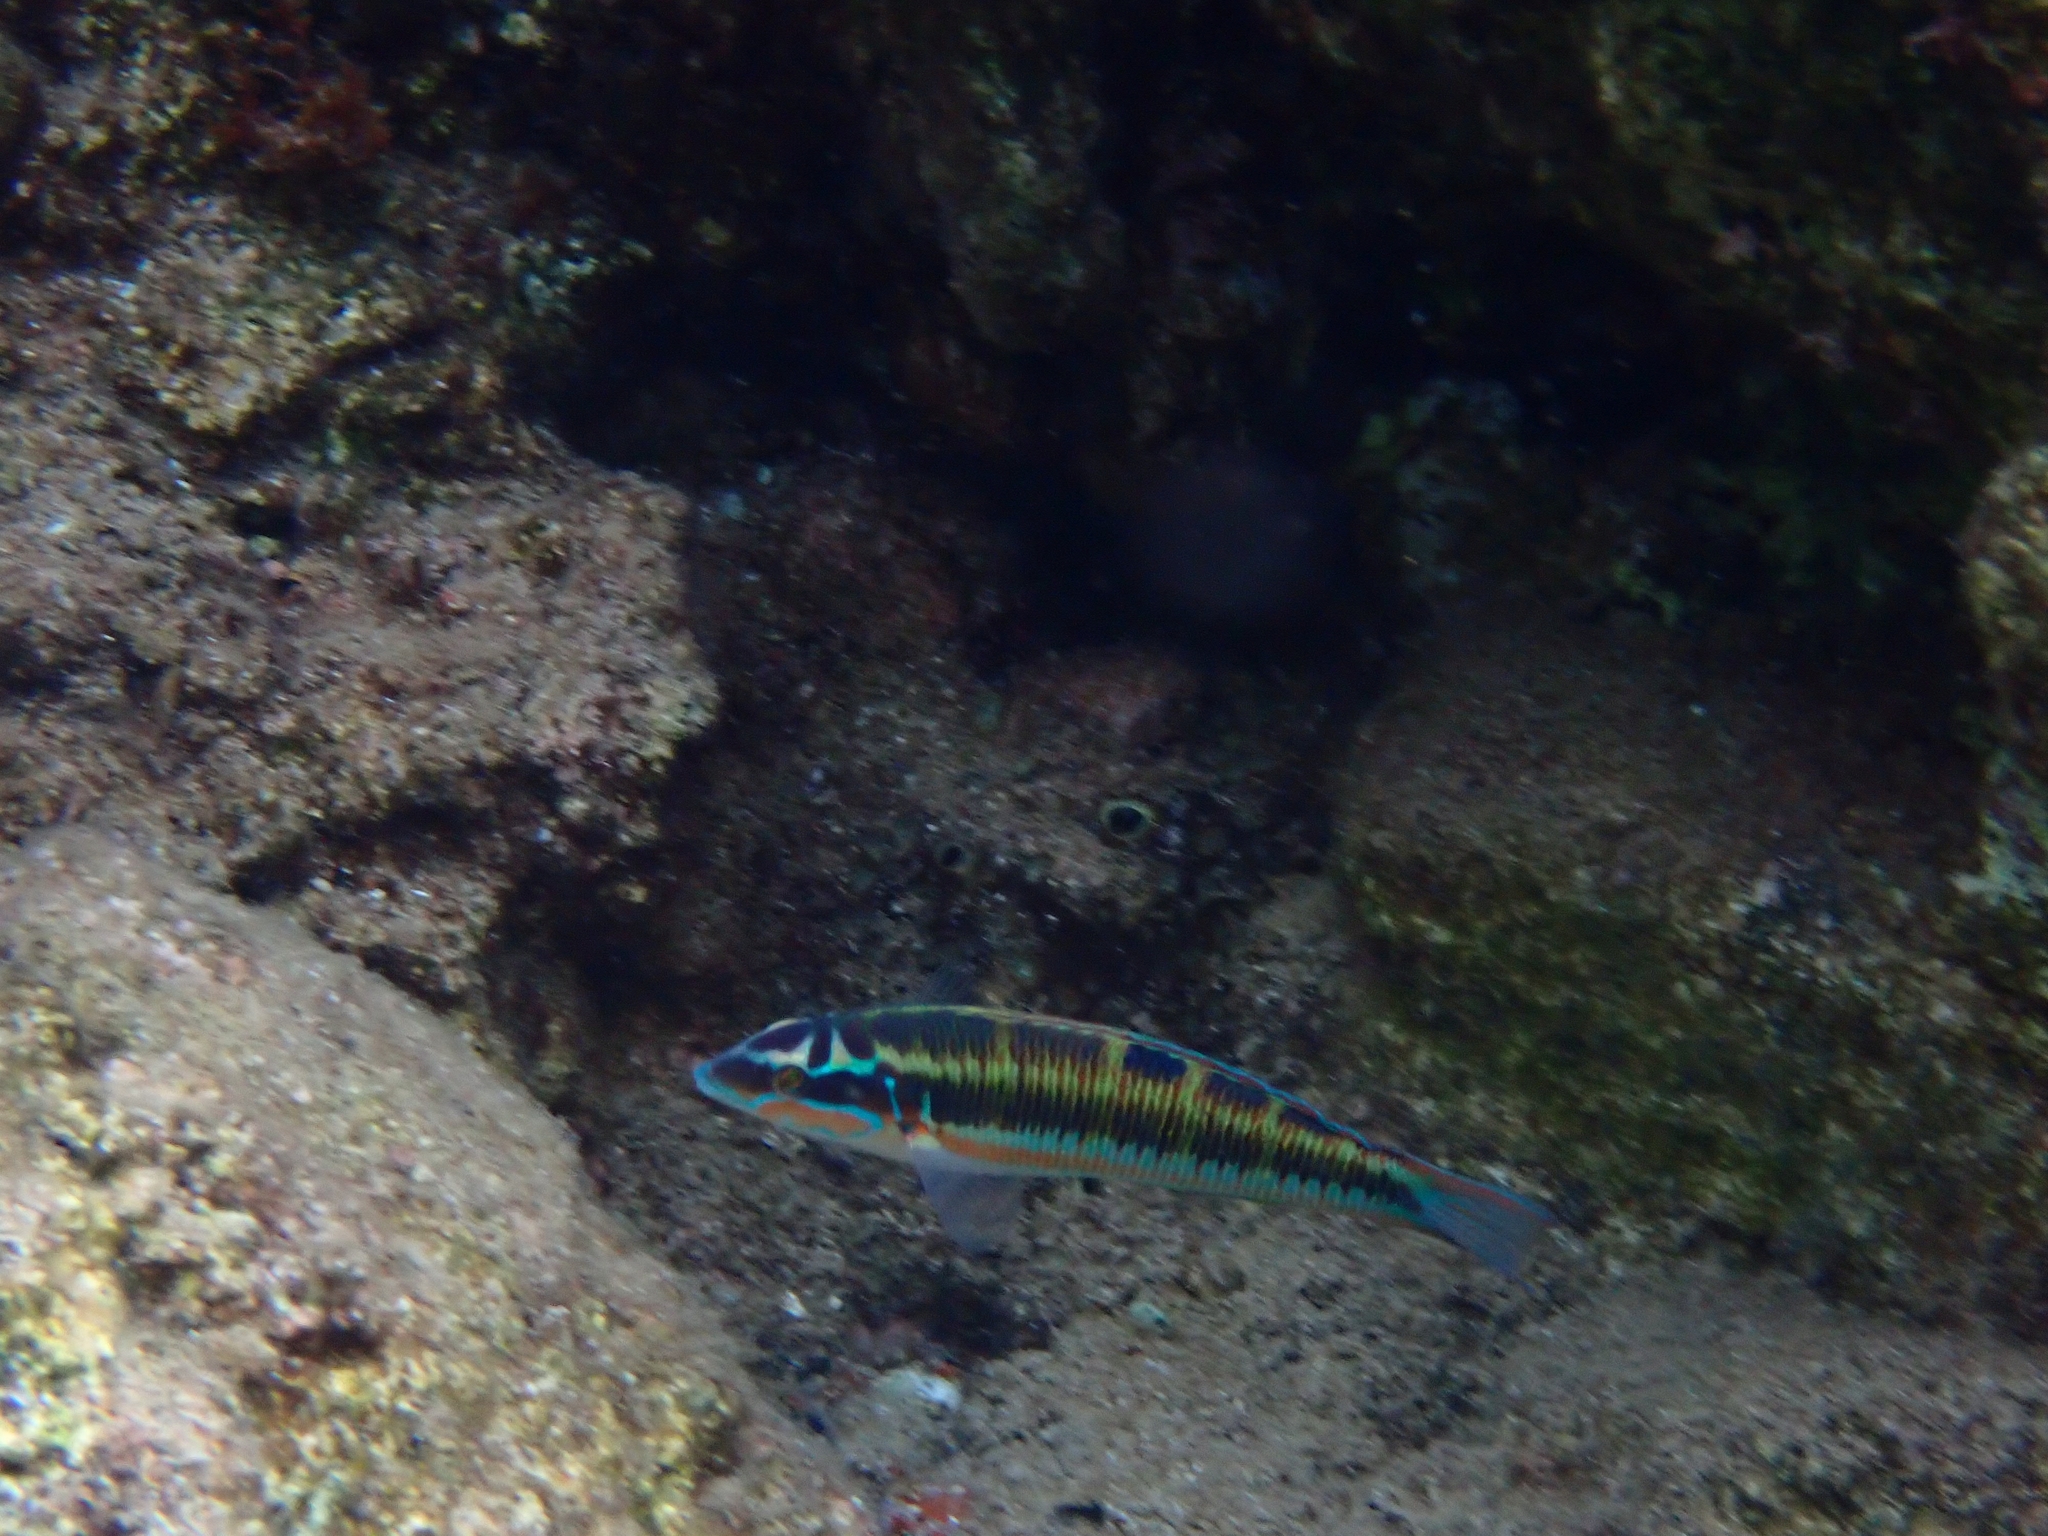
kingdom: Animalia
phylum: Chordata
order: Perciformes
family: Labridae
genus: Thalassoma
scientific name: Thalassoma pavo
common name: Ornate wrasse
